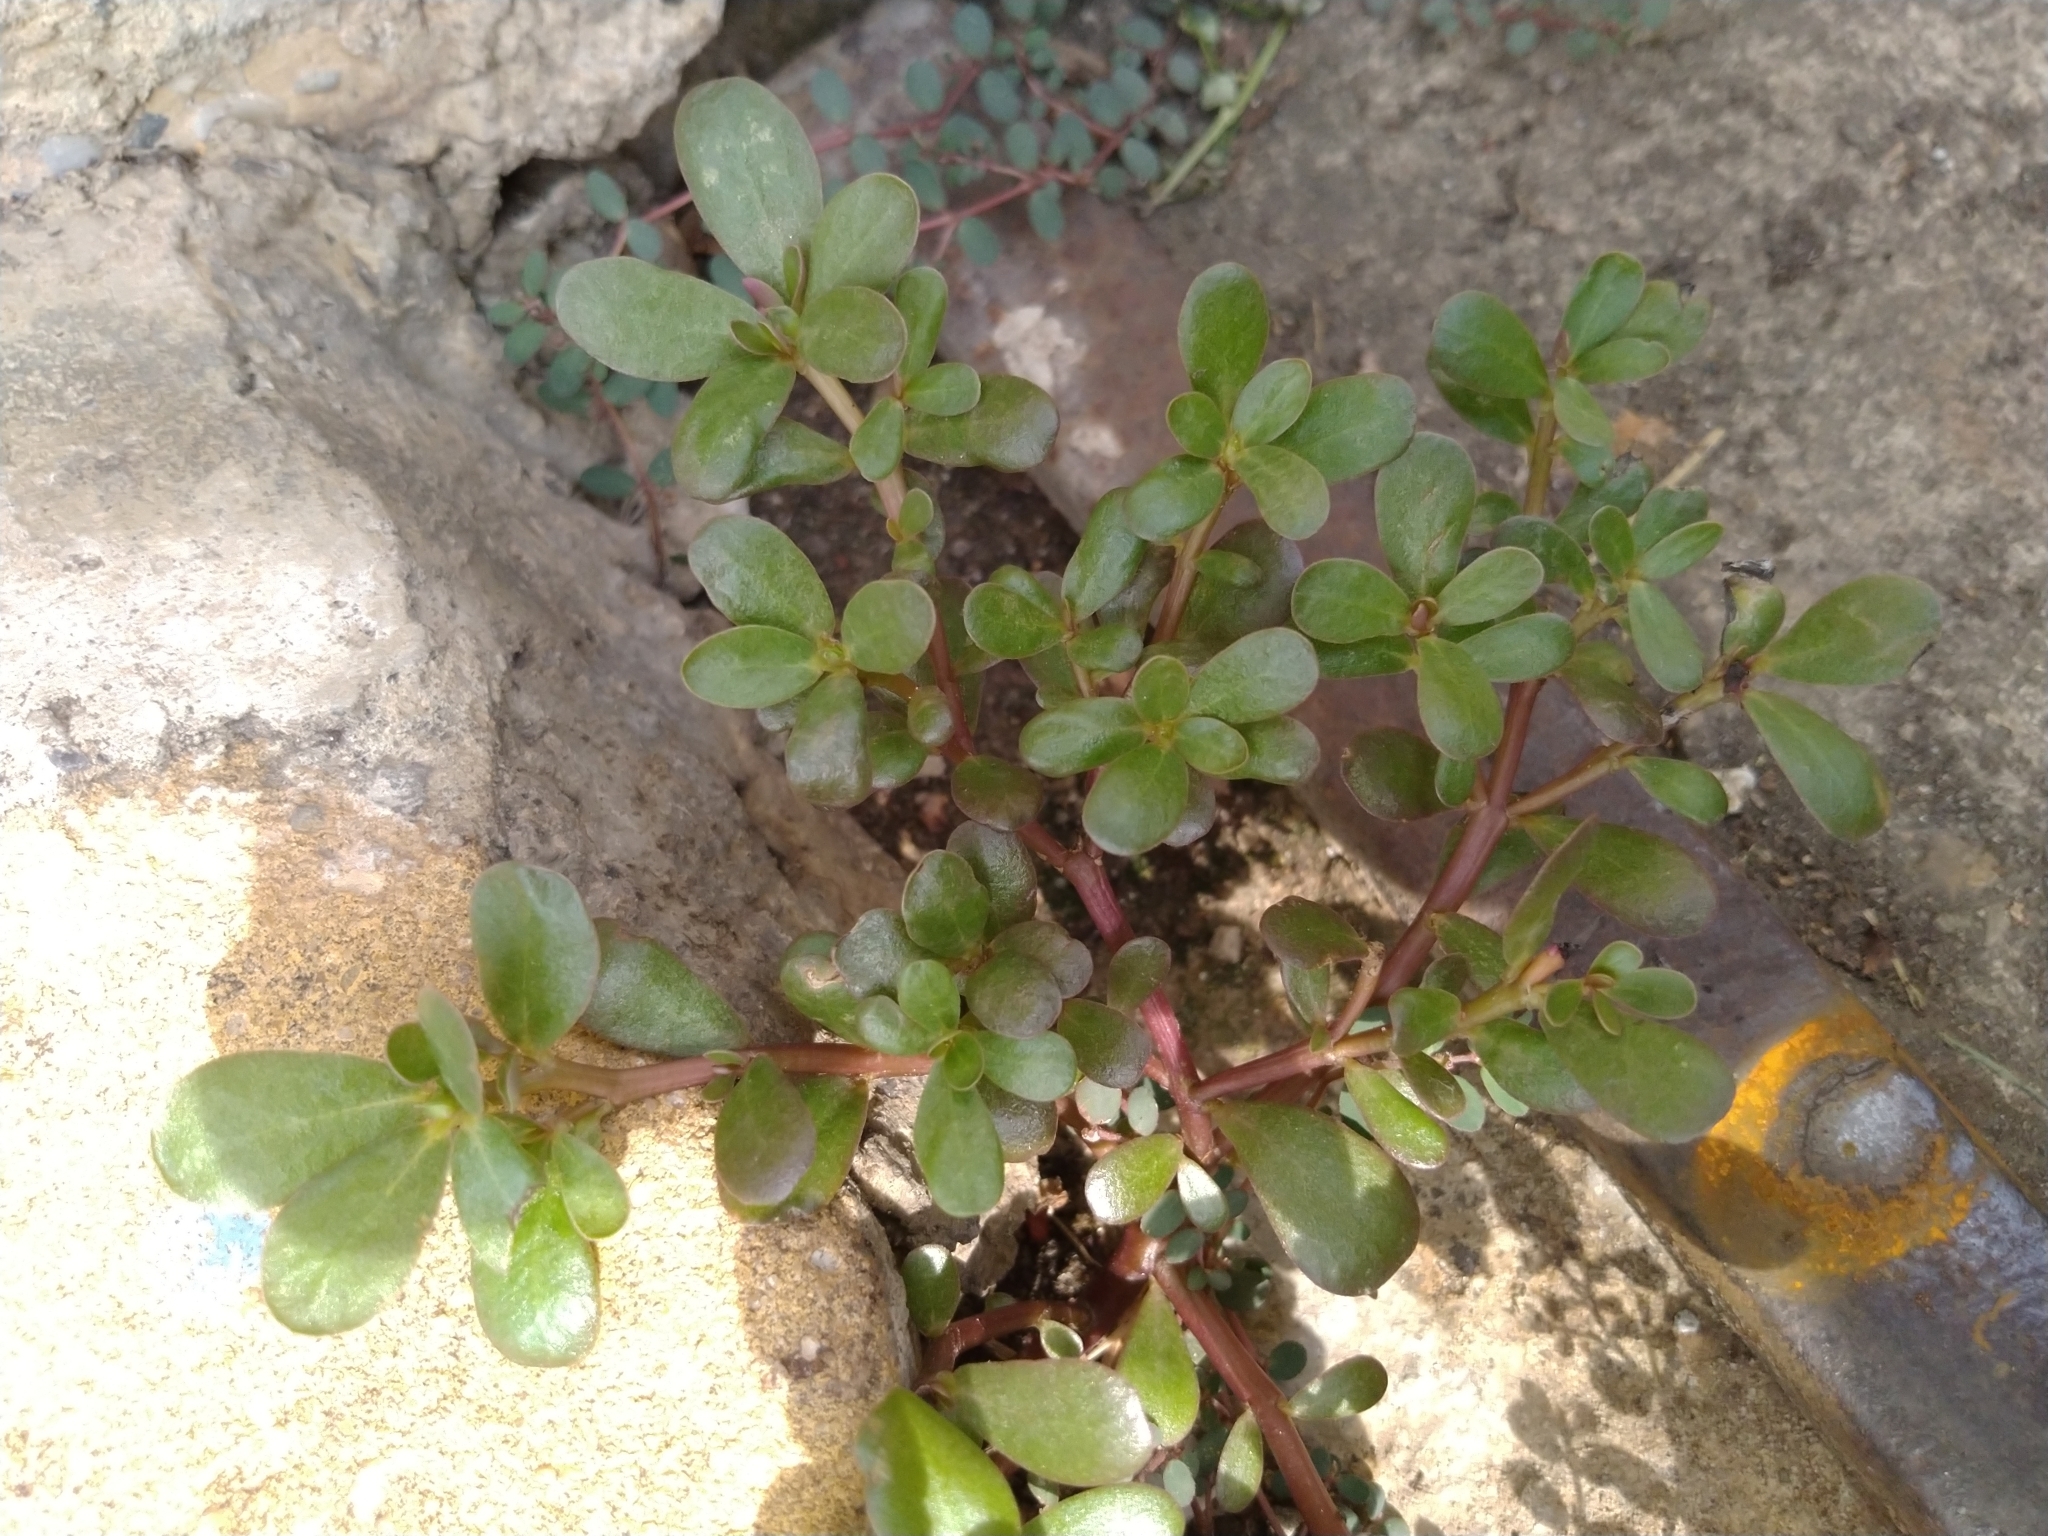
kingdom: Plantae
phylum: Tracheophyta
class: Magnoliopsida
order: Caryophyllales
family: Portulacaceae
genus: Portulaca
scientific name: Portulaca oleracea
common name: Common purslane
